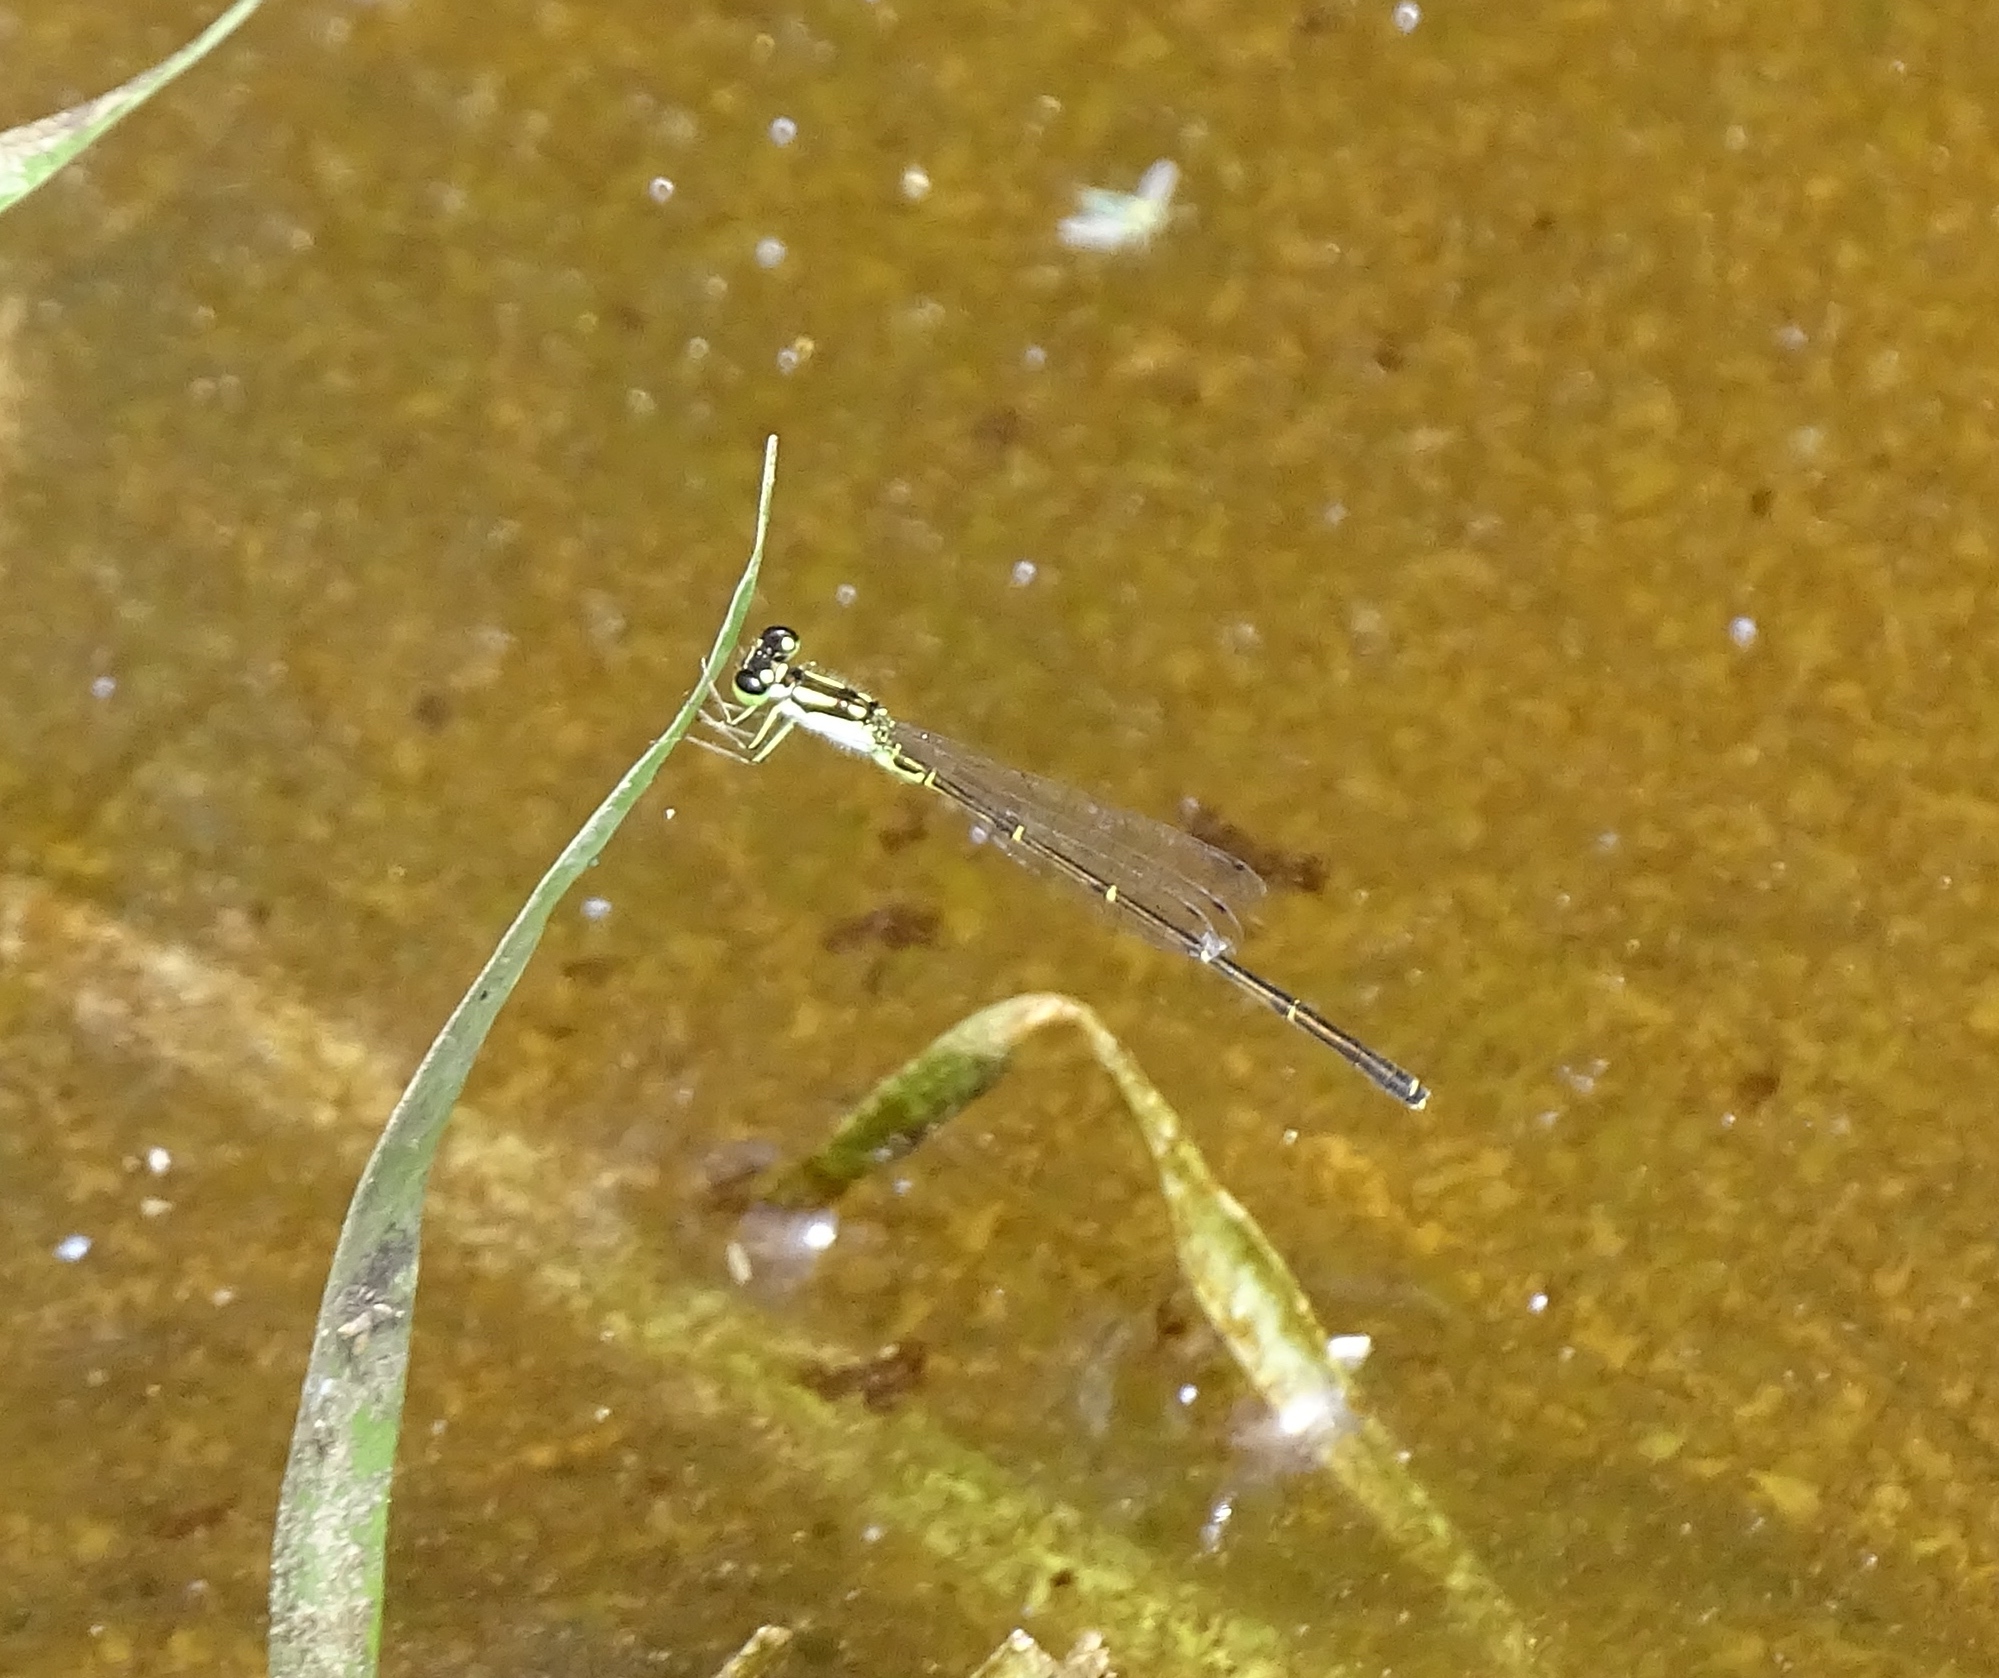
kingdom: Animalia
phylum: Arthropoda
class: Insecta
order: Odonata
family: Coenagrionidae
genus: Ischnura
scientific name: Ischnura posita
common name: Fragile forktail
